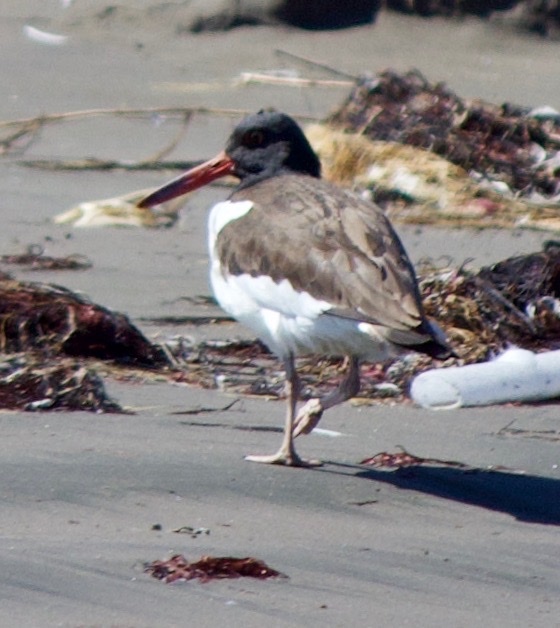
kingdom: Animalia
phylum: Chordata
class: Aves
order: Charadriiformes
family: Haematopodidae
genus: Haematopus
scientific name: Haematopus palliatus
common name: American oystercatcher
